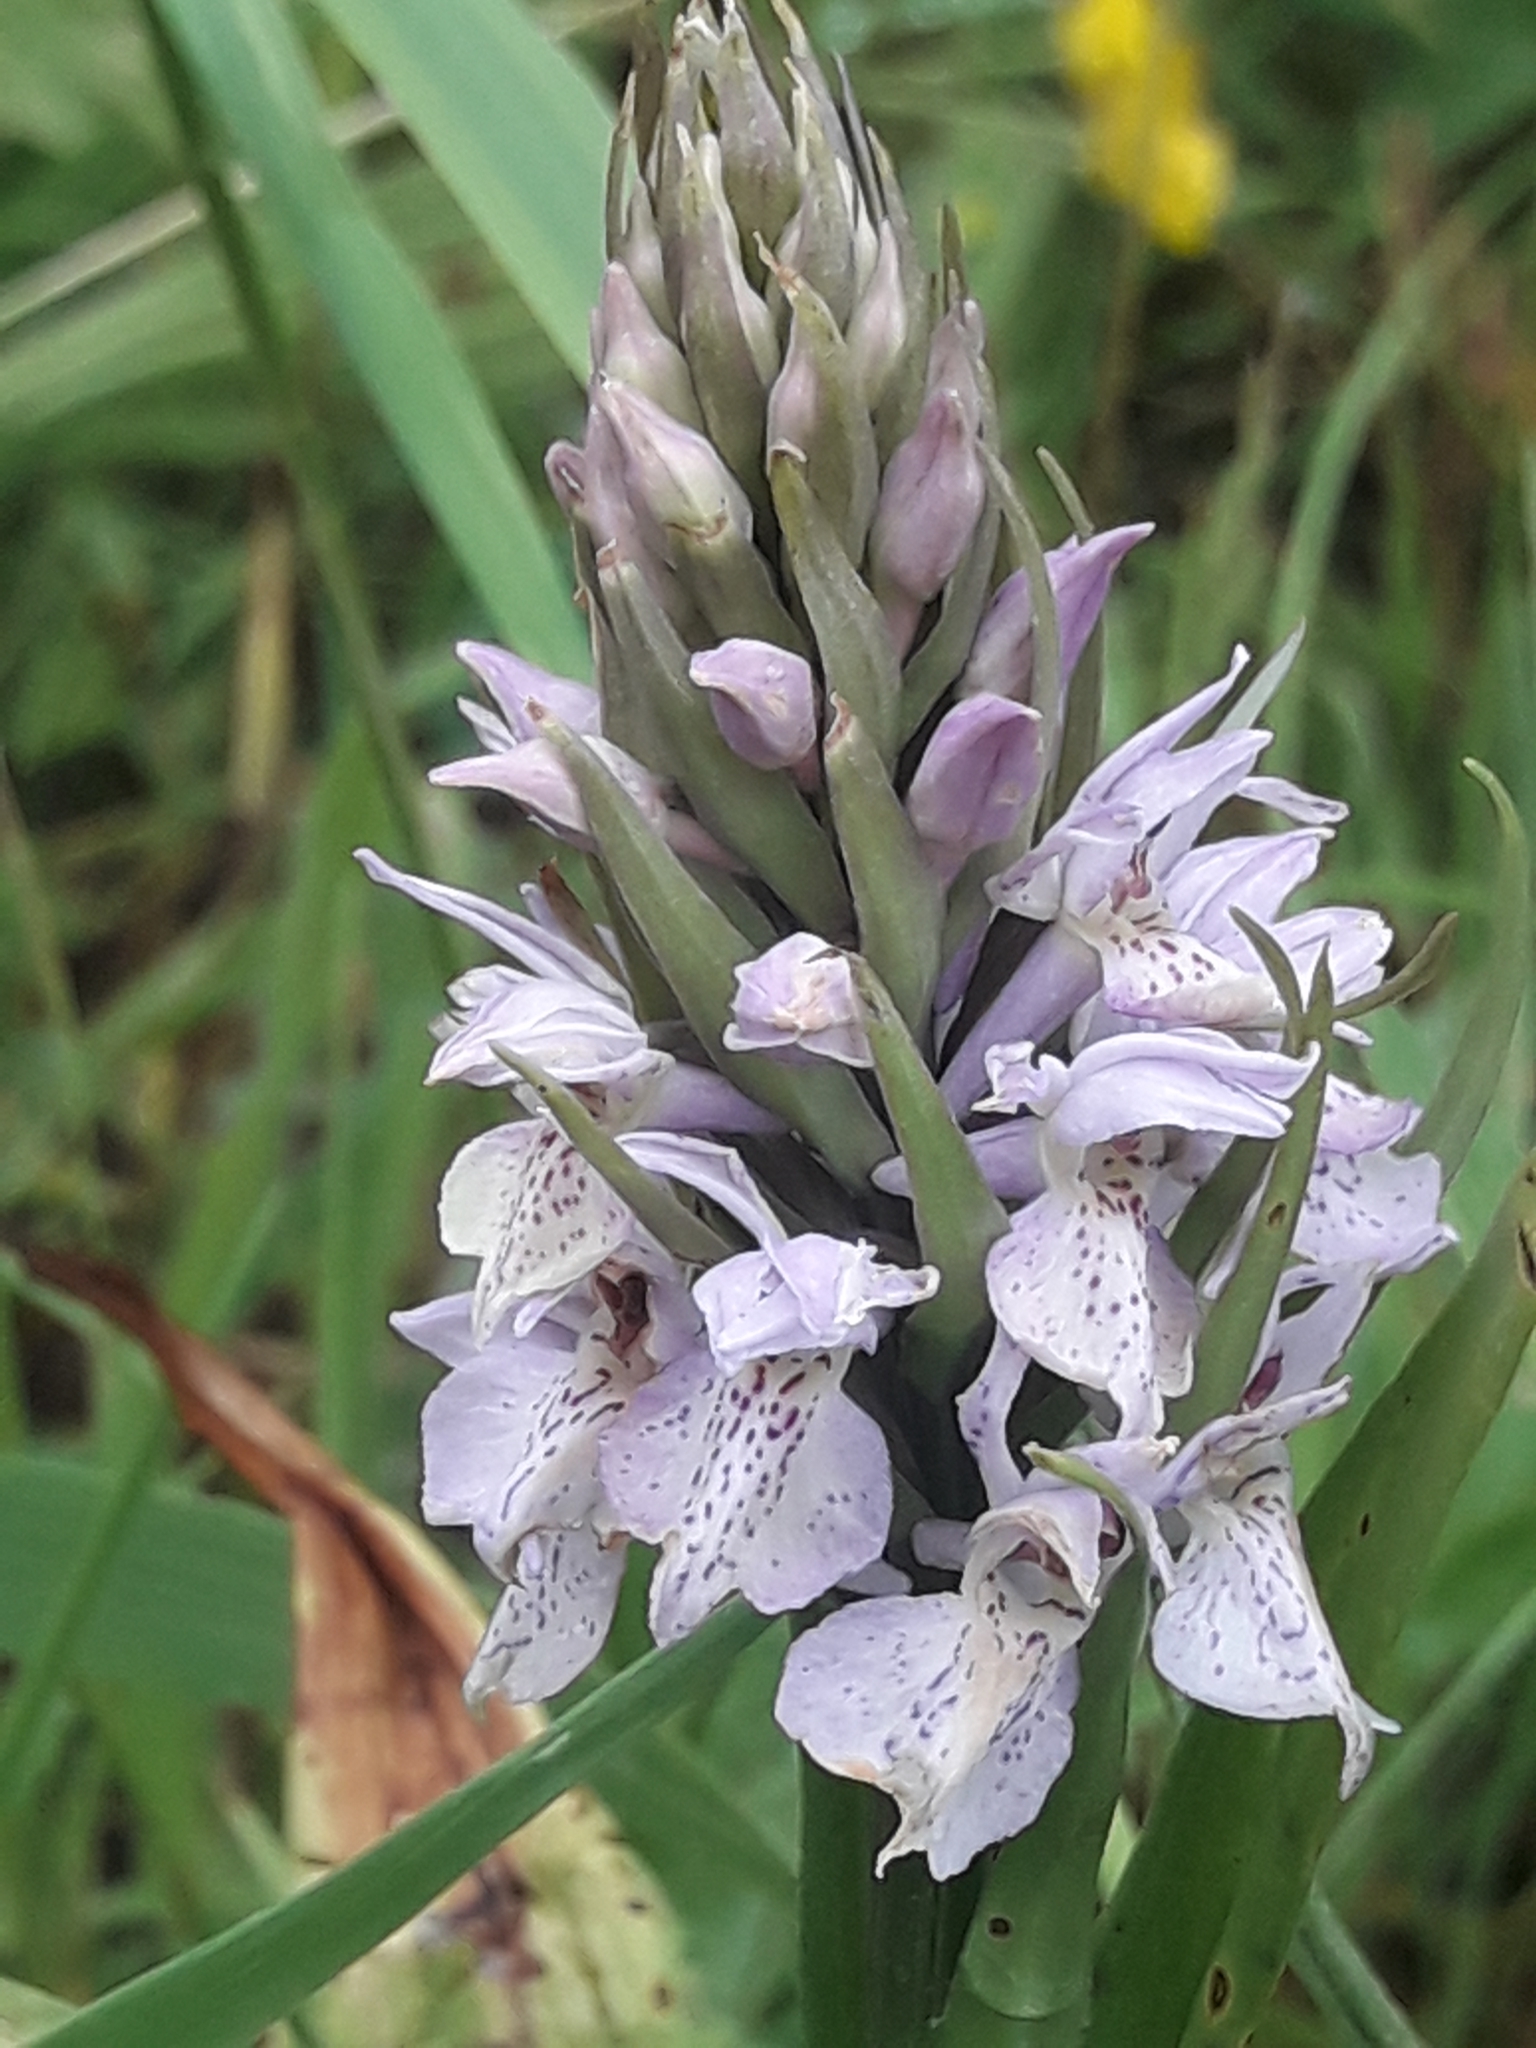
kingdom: Plantae
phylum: Tracheophyta
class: Liliopsida
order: Asparagales
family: Orchidaceae
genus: Dactylorhiza
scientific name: Dactylorhiza majalis
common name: Marsh orchid
